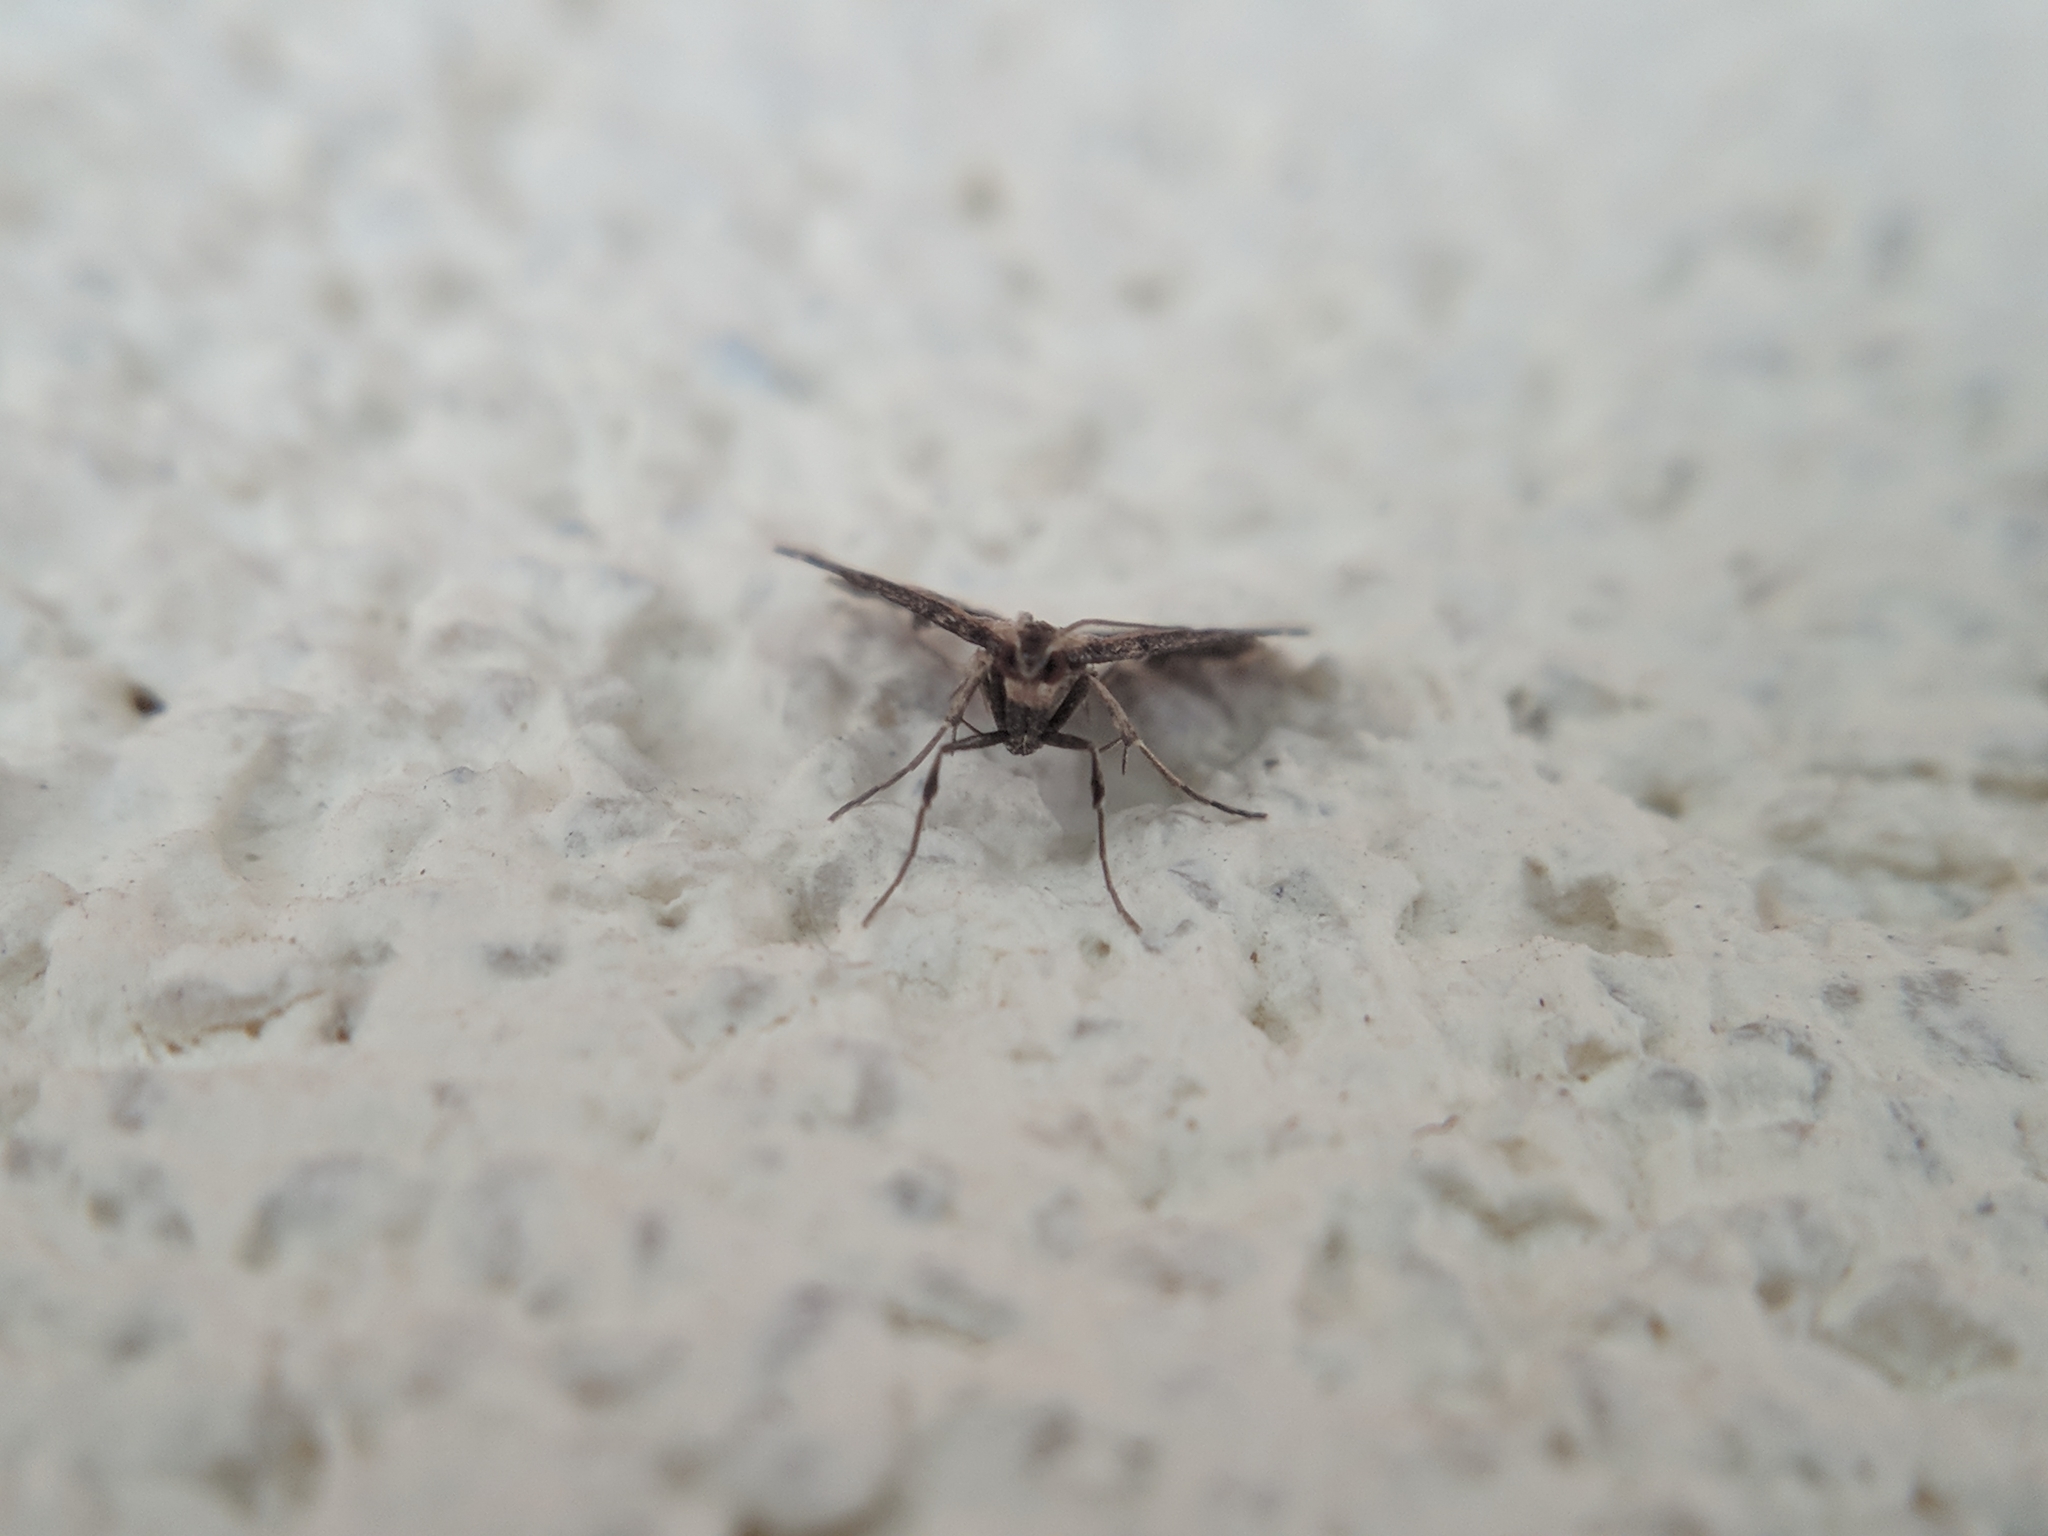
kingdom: Animalia
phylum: Arthropoda
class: Insecta
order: Lepidoptera
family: Crambidae
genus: Diasemia
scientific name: Diasemia reticularis
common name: Lettered china-mark
